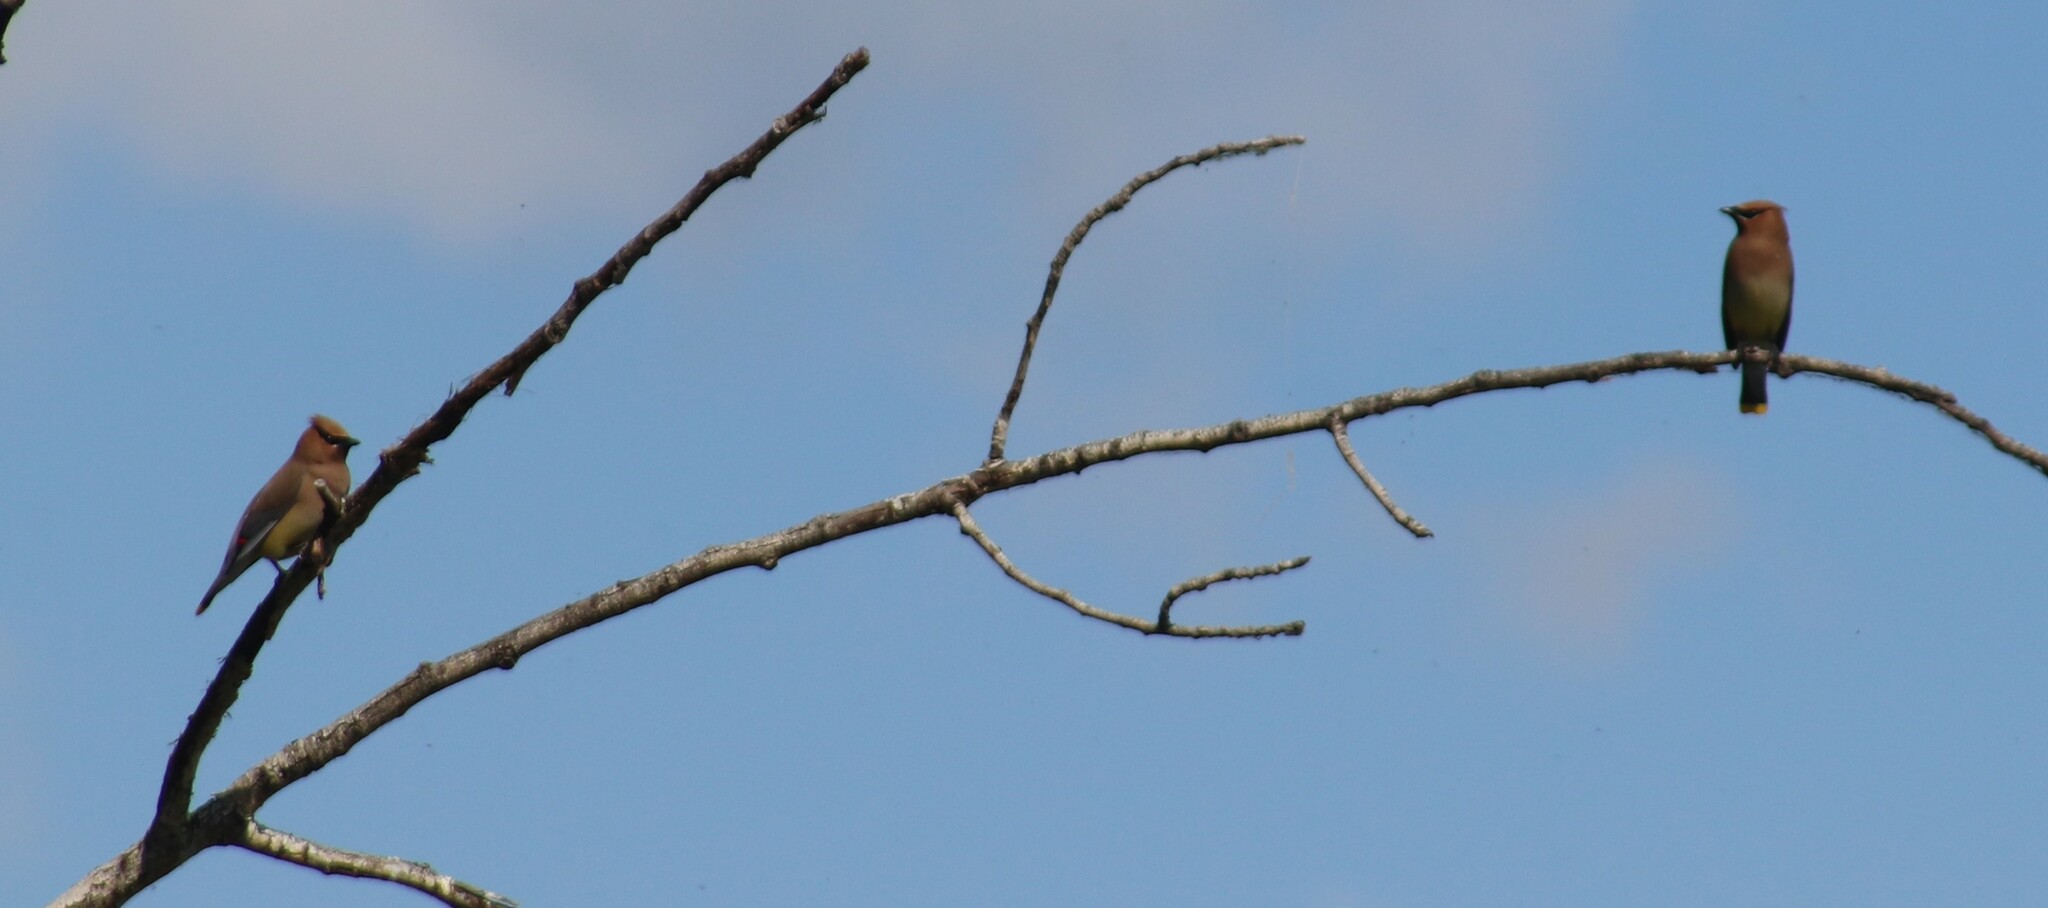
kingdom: Animalia
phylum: Chordata
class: Aves
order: Passeriformes
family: Bombycillidae
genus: Bombycilla
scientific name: Bombycilla cedrorum
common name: Cedar waxwing
